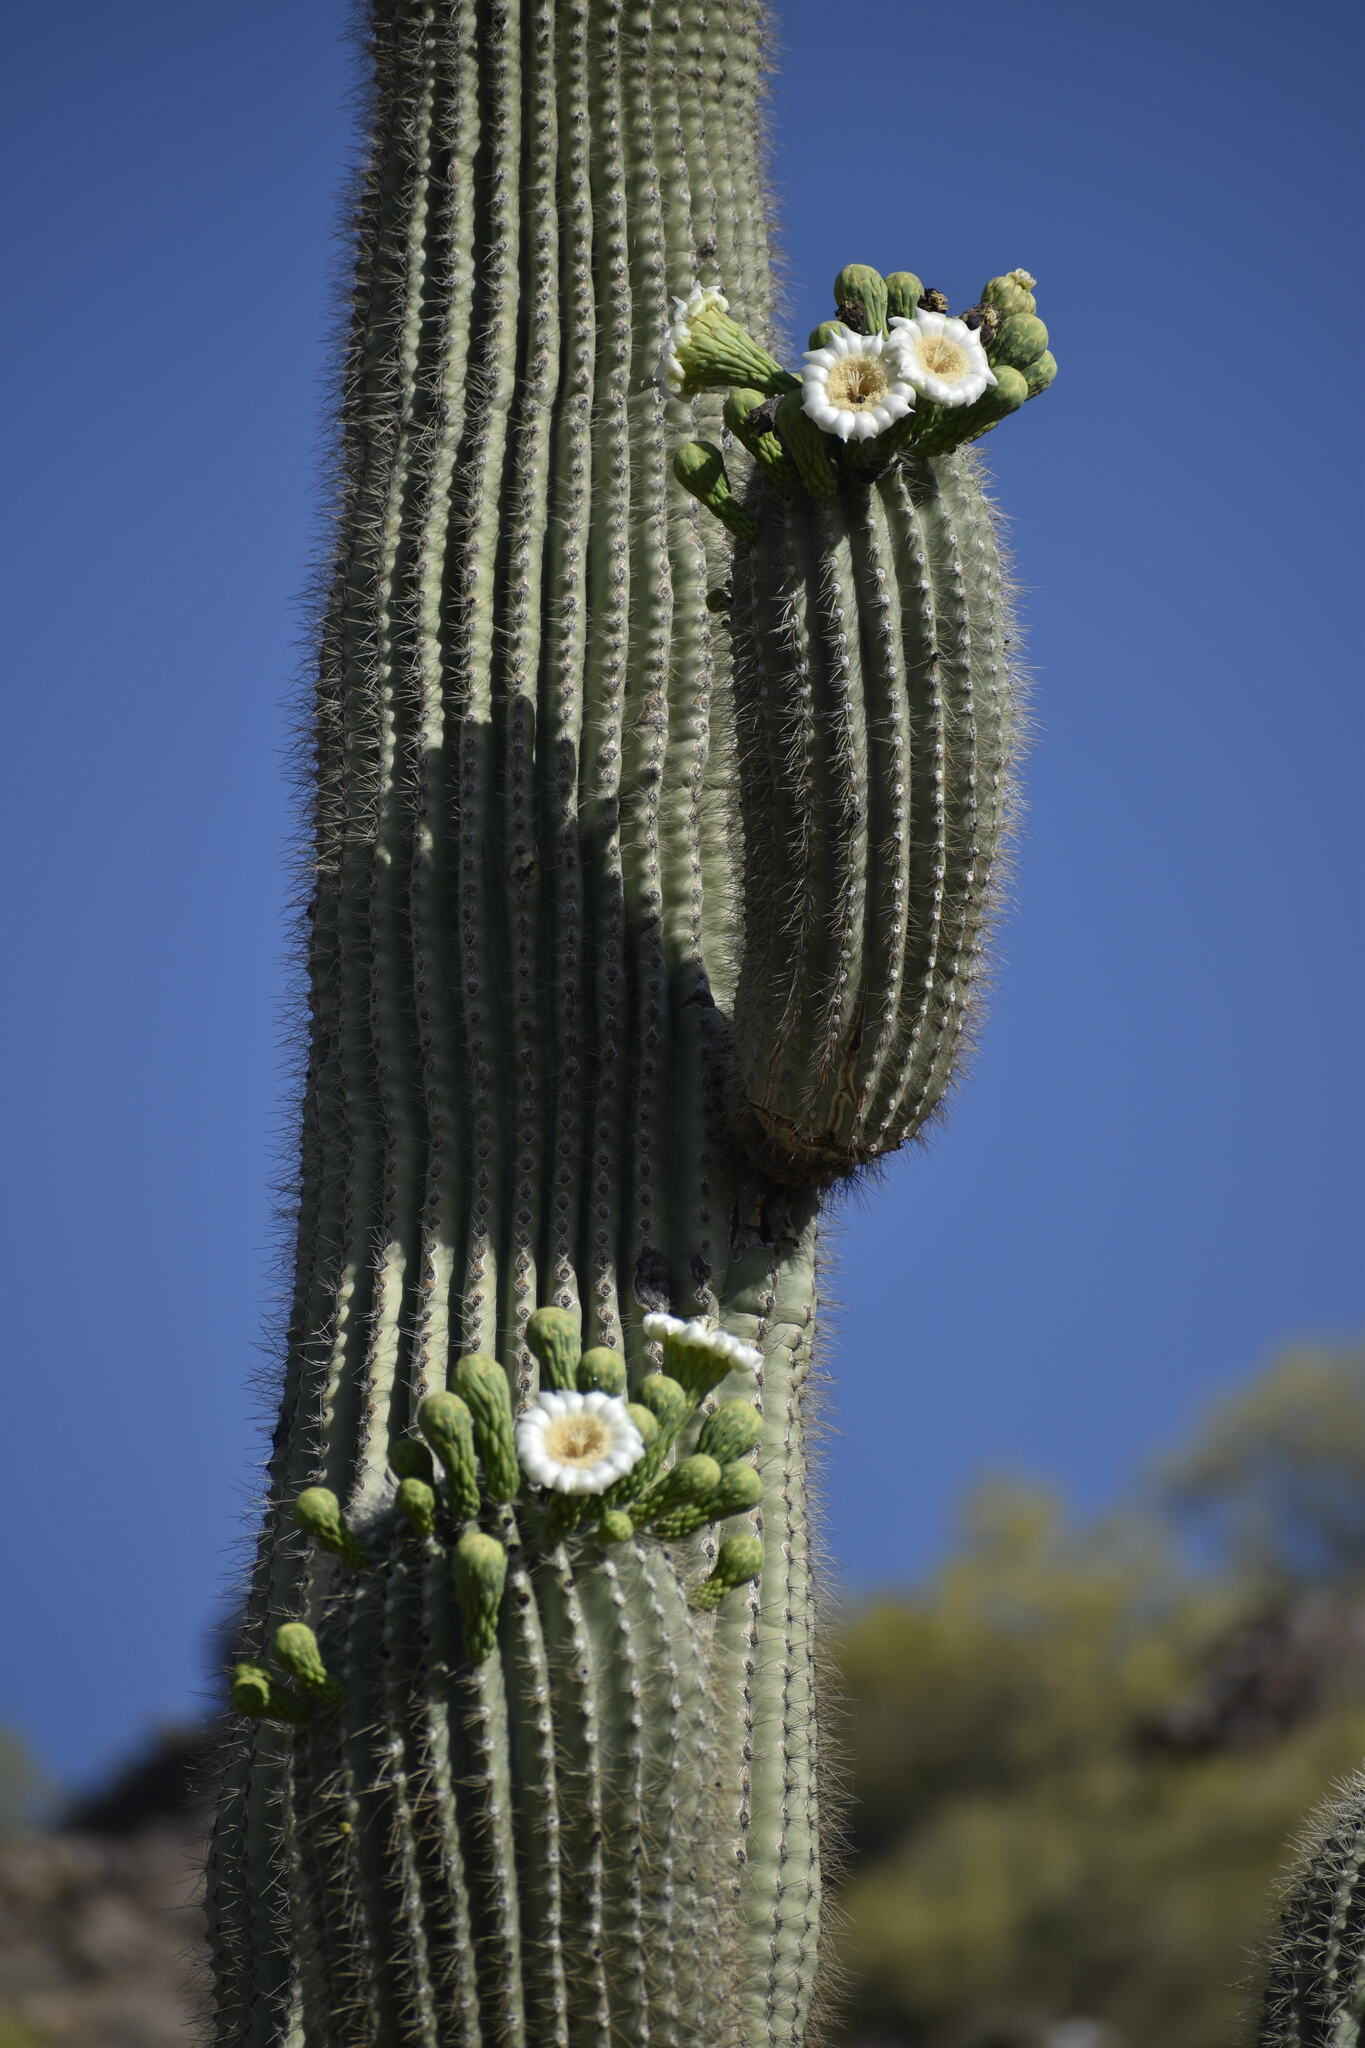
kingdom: Plantae
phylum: Tracheophyta
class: Magnoliopsida
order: Caryophyllales
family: Cactaceae
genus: Carnegiea
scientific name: Carnegiea gigantea
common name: Saguaro
